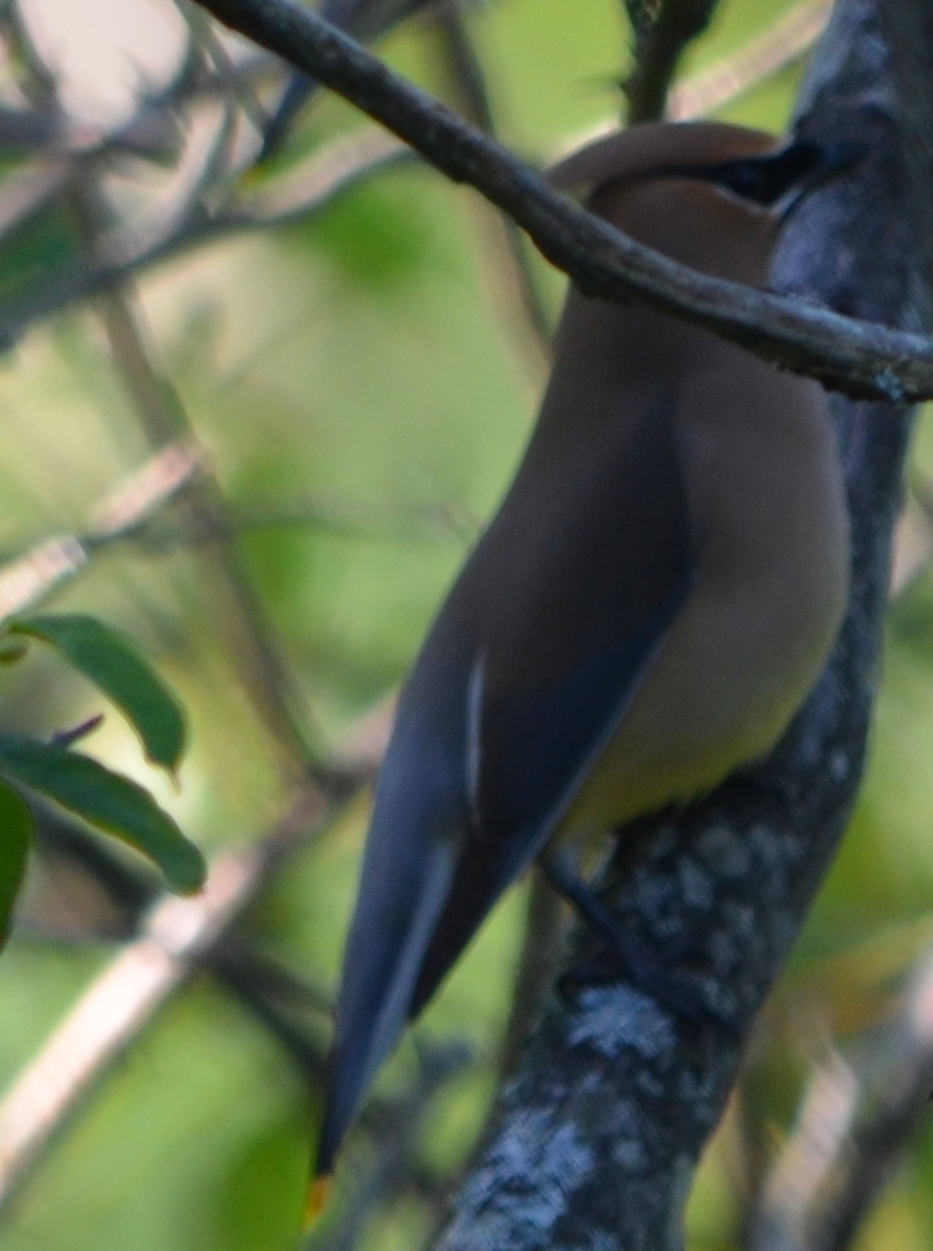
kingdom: Animalia
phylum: Chordata
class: Aves
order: Passeriformes
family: Bombycillidae
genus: Bombycilla
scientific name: Bombycilla cedrorum
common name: Cedar waxwing
